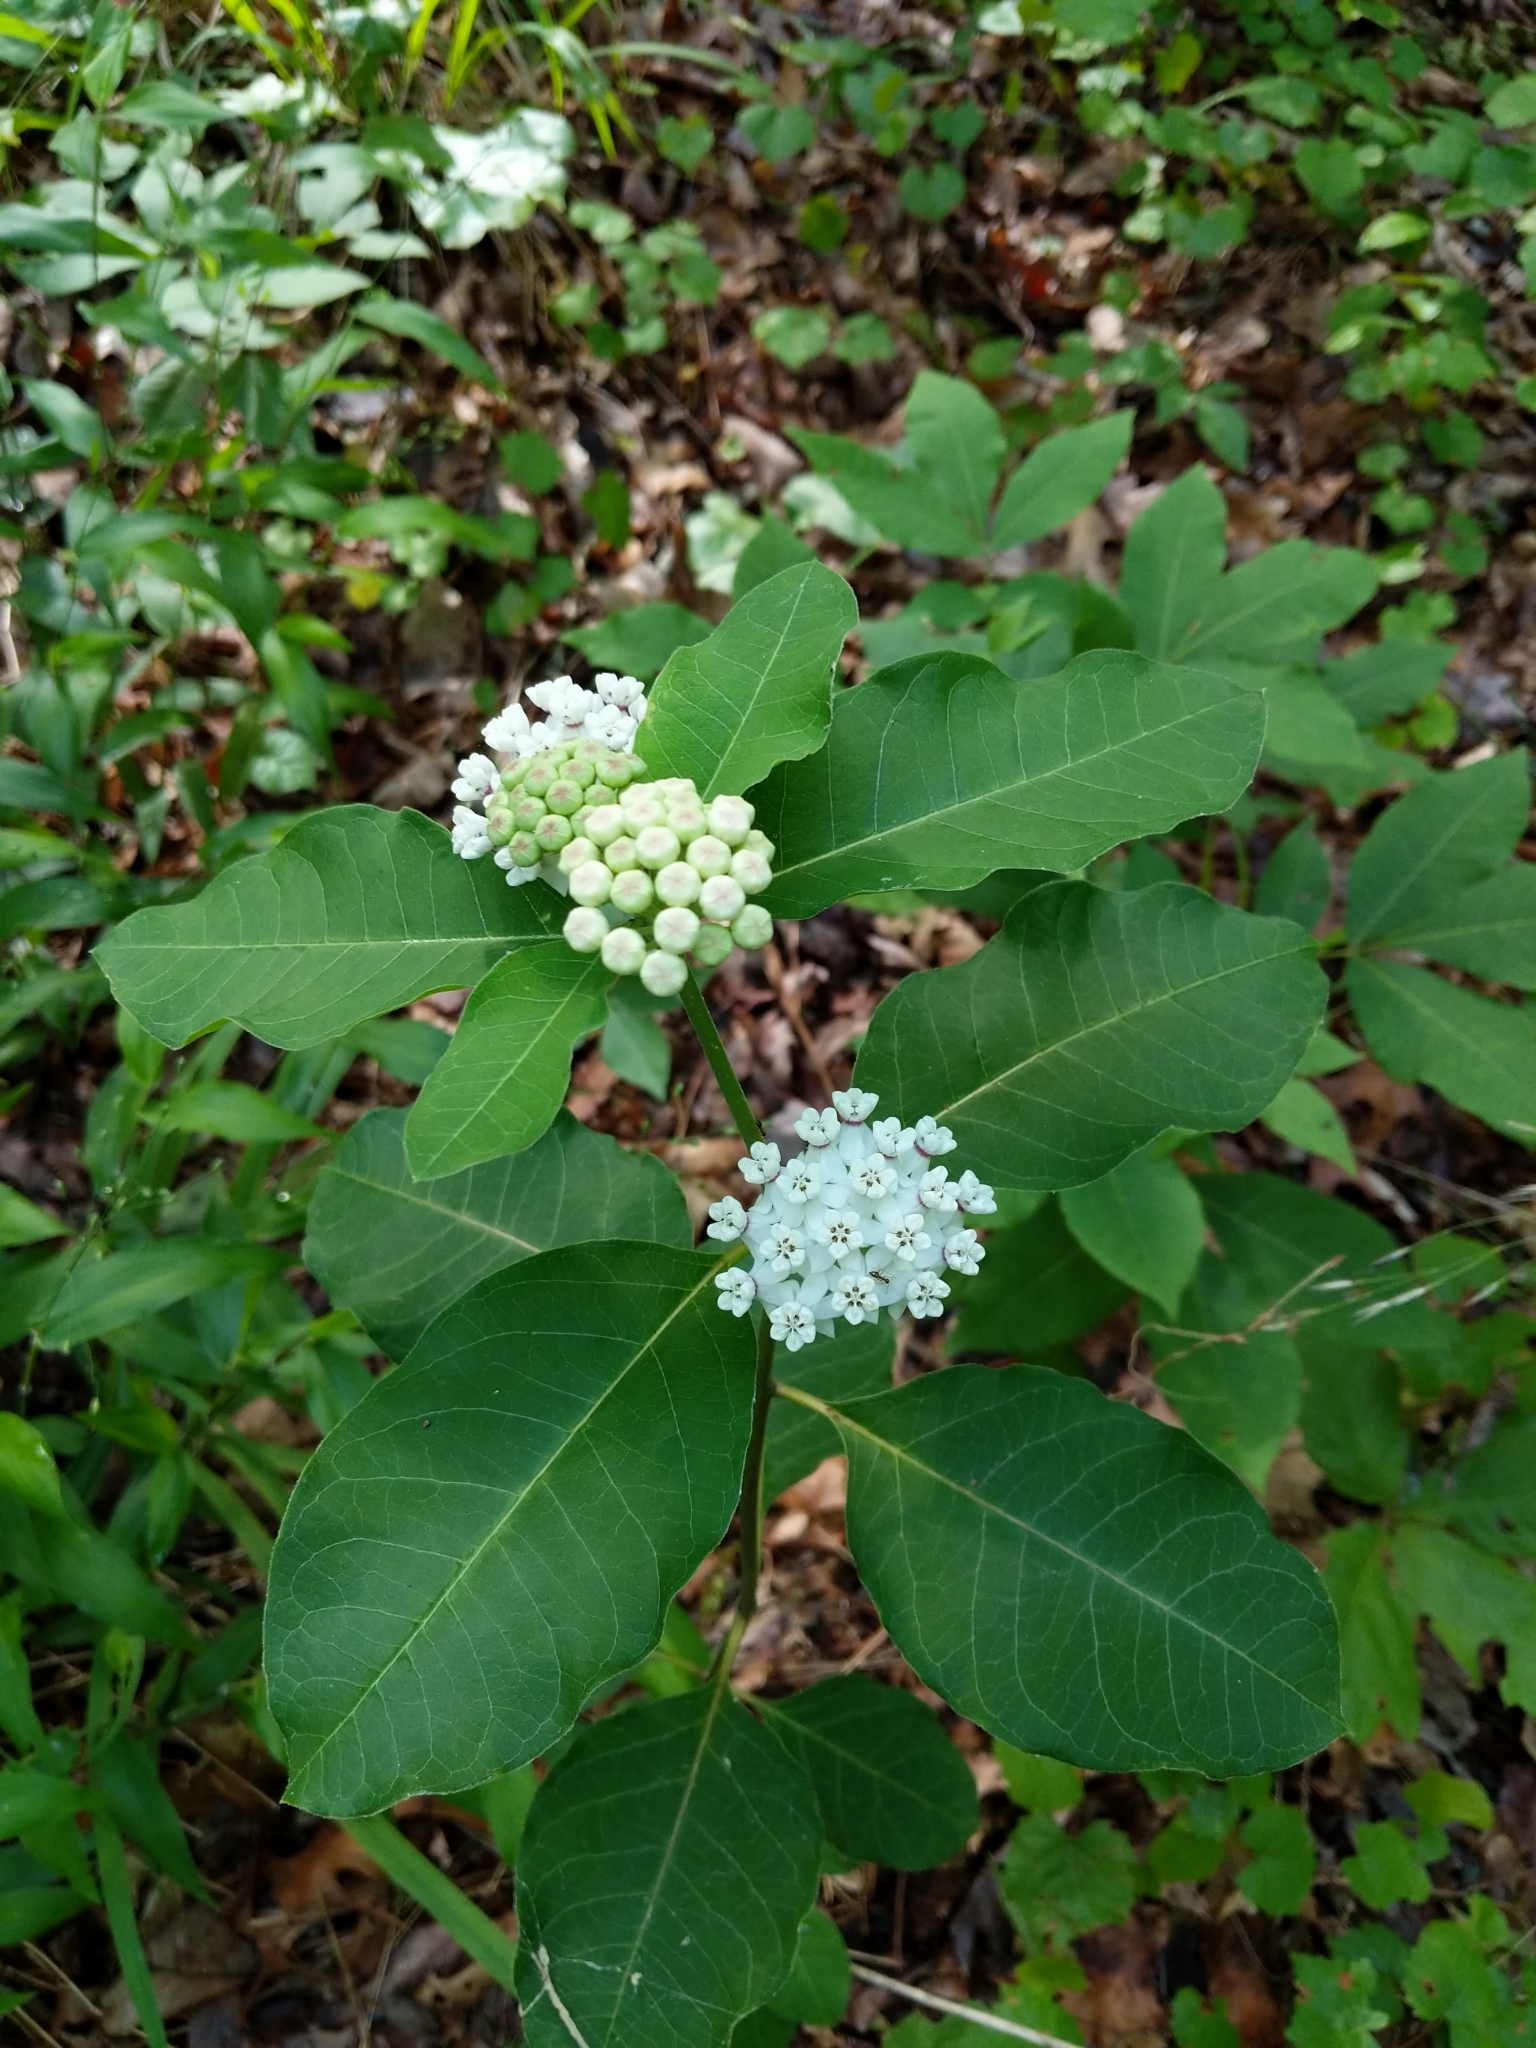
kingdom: Plantae
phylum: Tracheophyta
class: Magnoliopsida
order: Gentianales
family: Apocynaceae
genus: Asclepias
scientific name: Asclepias variegata
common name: Variegated milkweed
